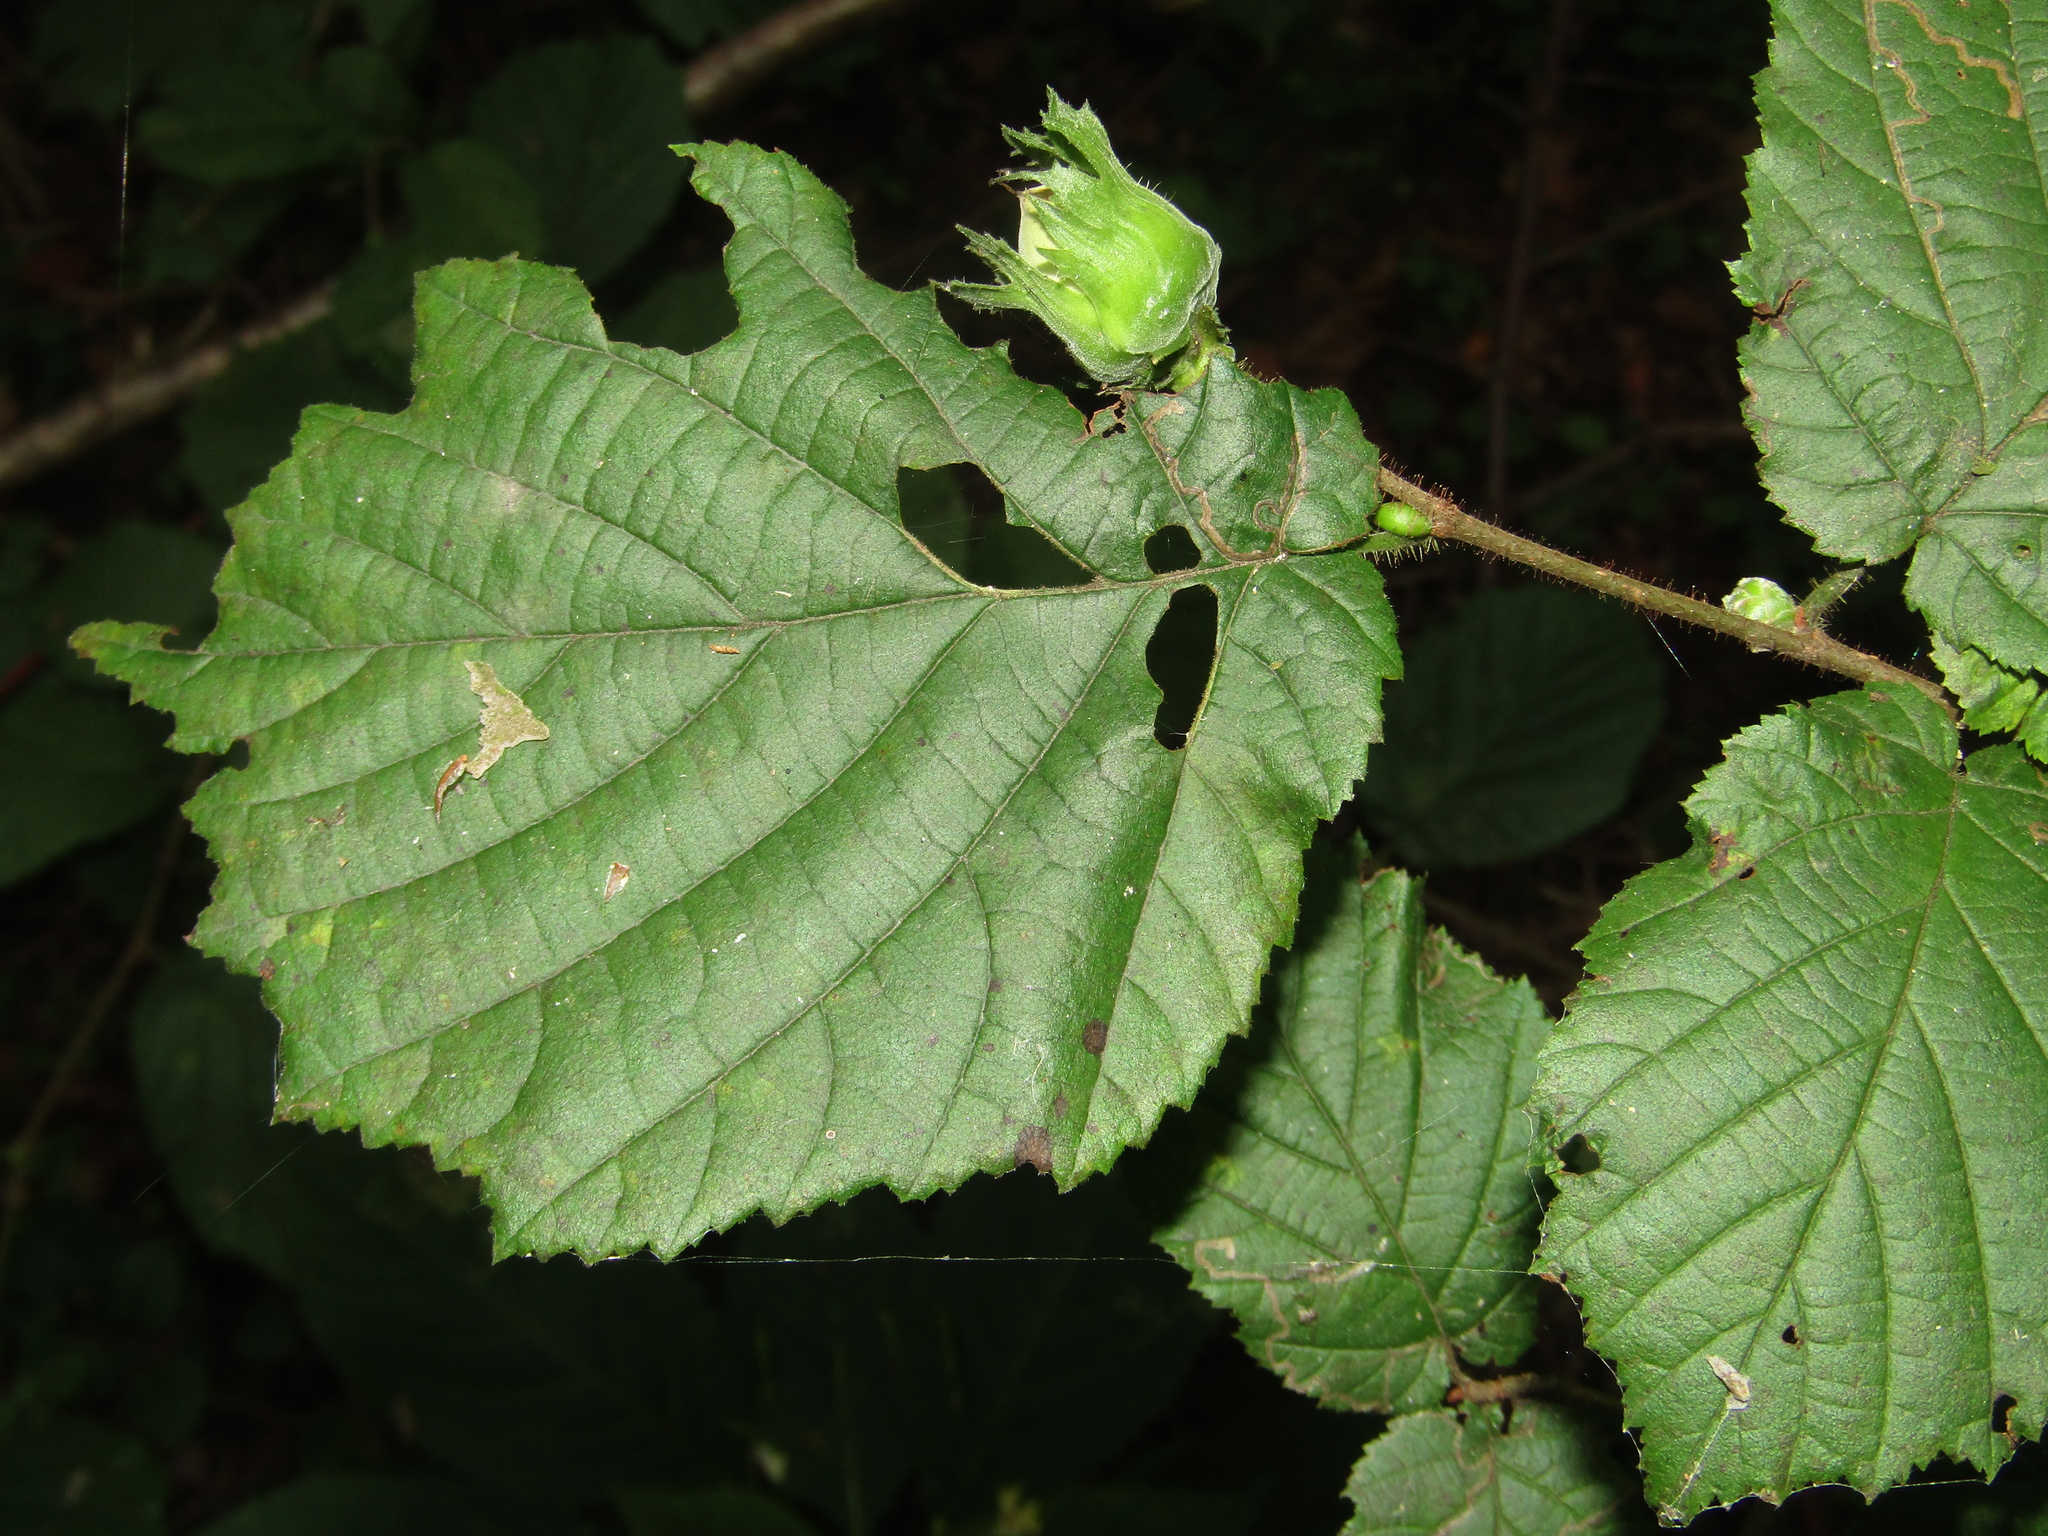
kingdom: Plantae
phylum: Tracheophyta
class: Magnoliopsida
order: Fagales
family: Betulaceae
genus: Corylus
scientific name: Corylus avellana
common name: European hazel
